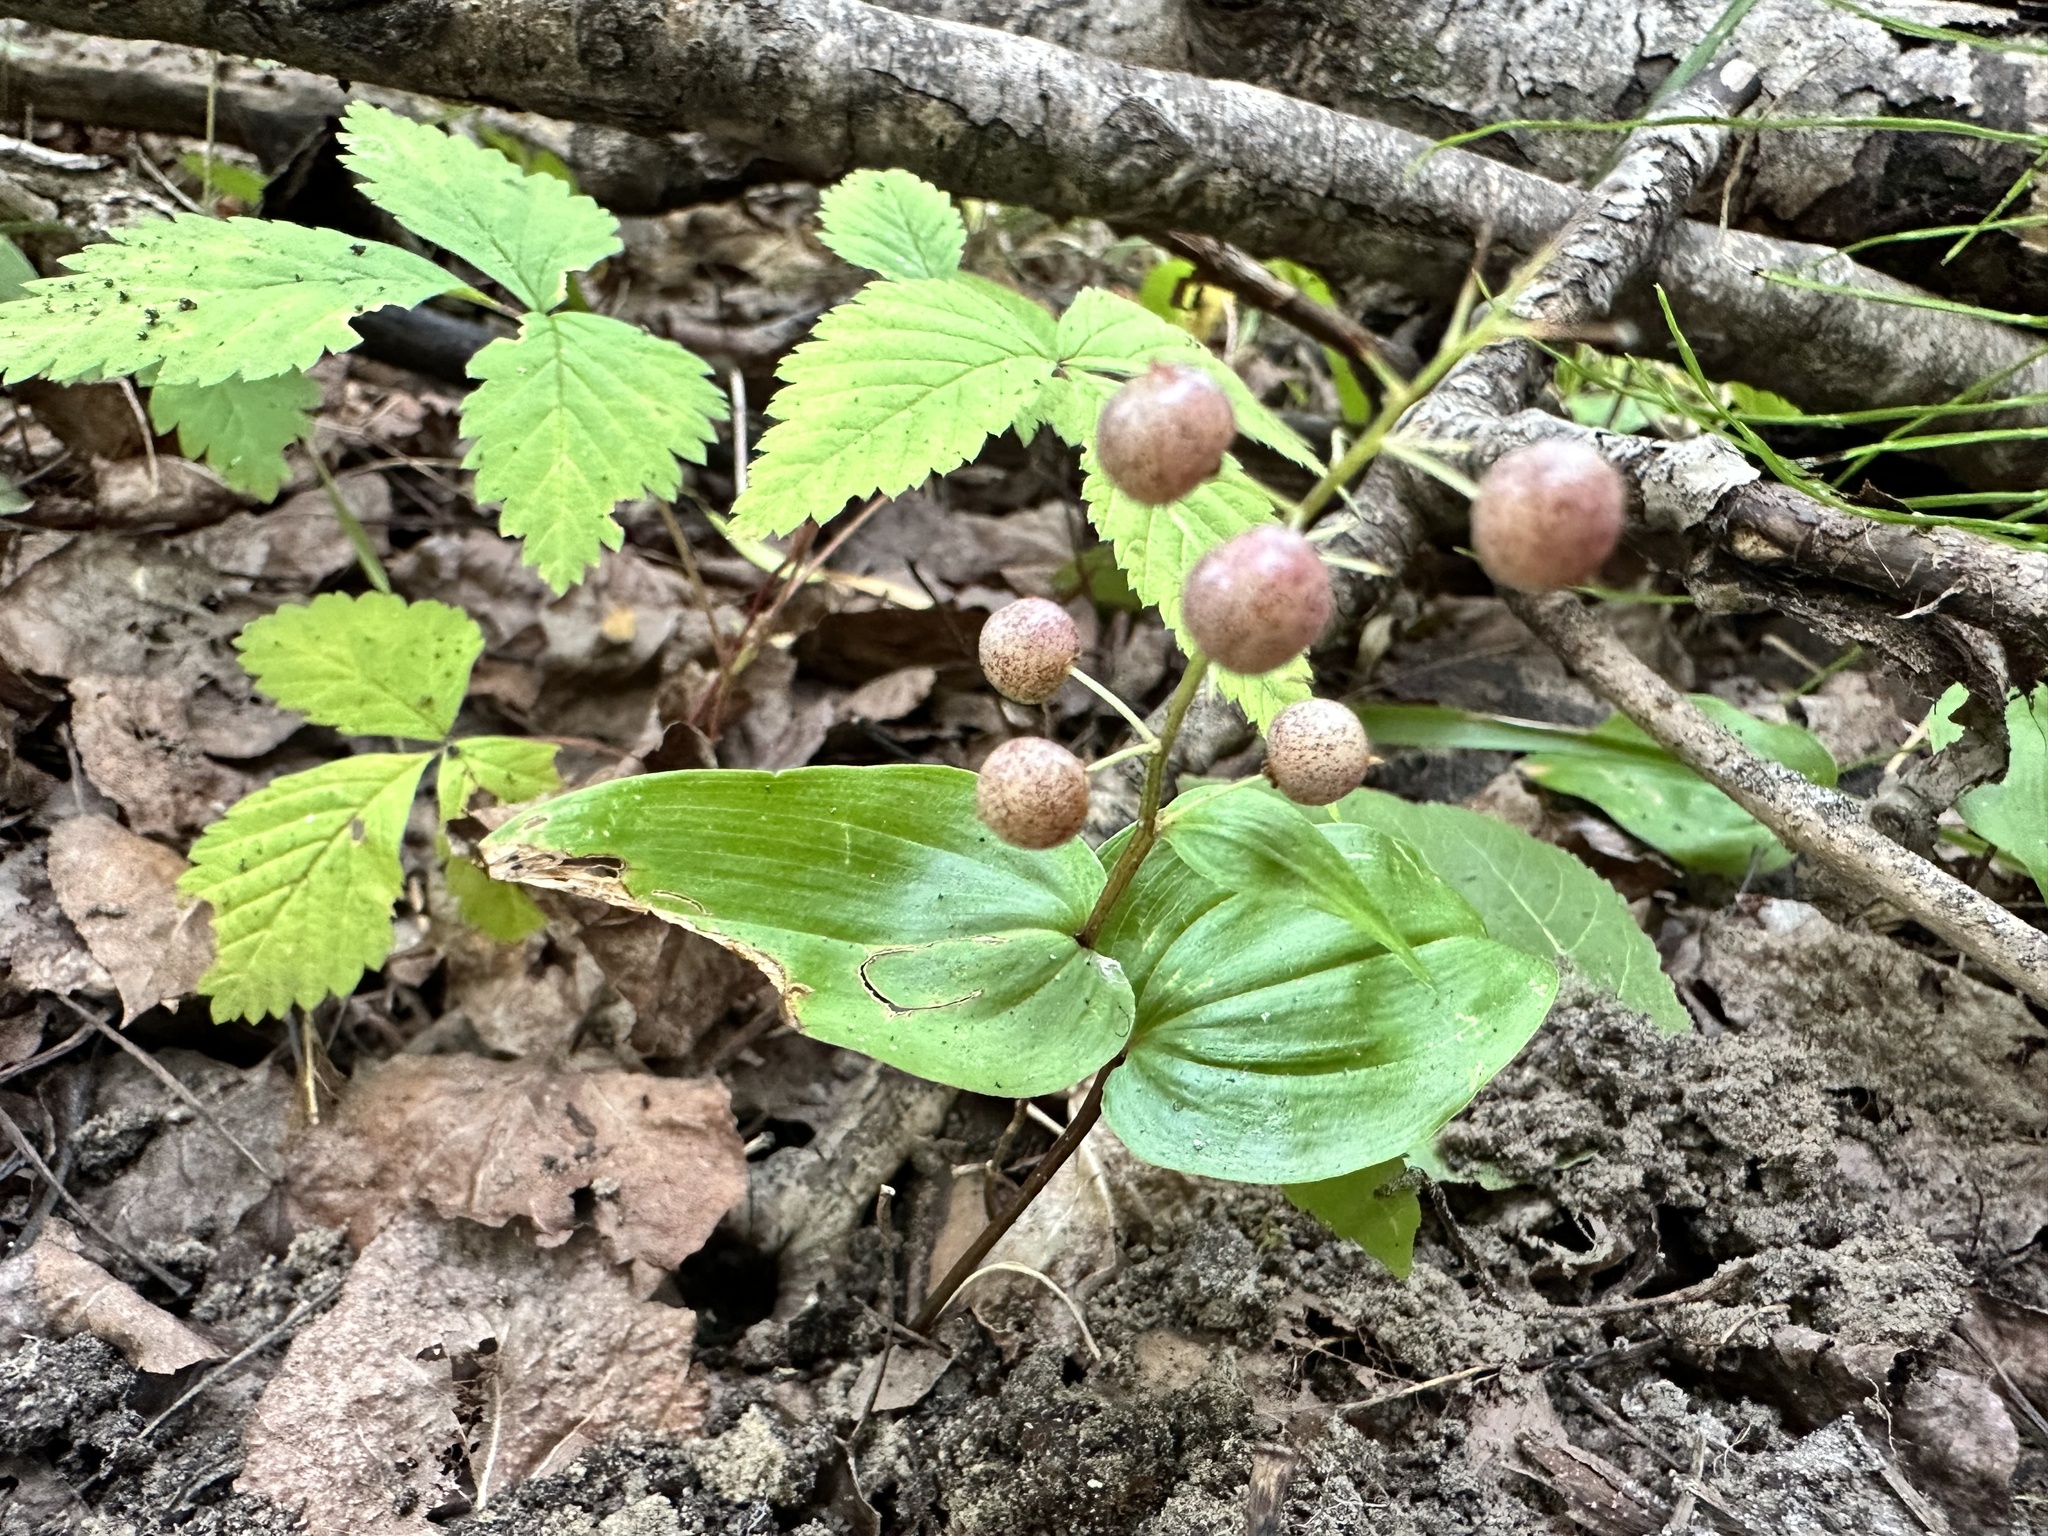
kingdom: Plantae
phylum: Tracheophyta
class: Liliopsida
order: Asparagales
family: Asparagaceae
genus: Maianthemum
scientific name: Maianthemum canadense
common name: False lily-of-the-valley
